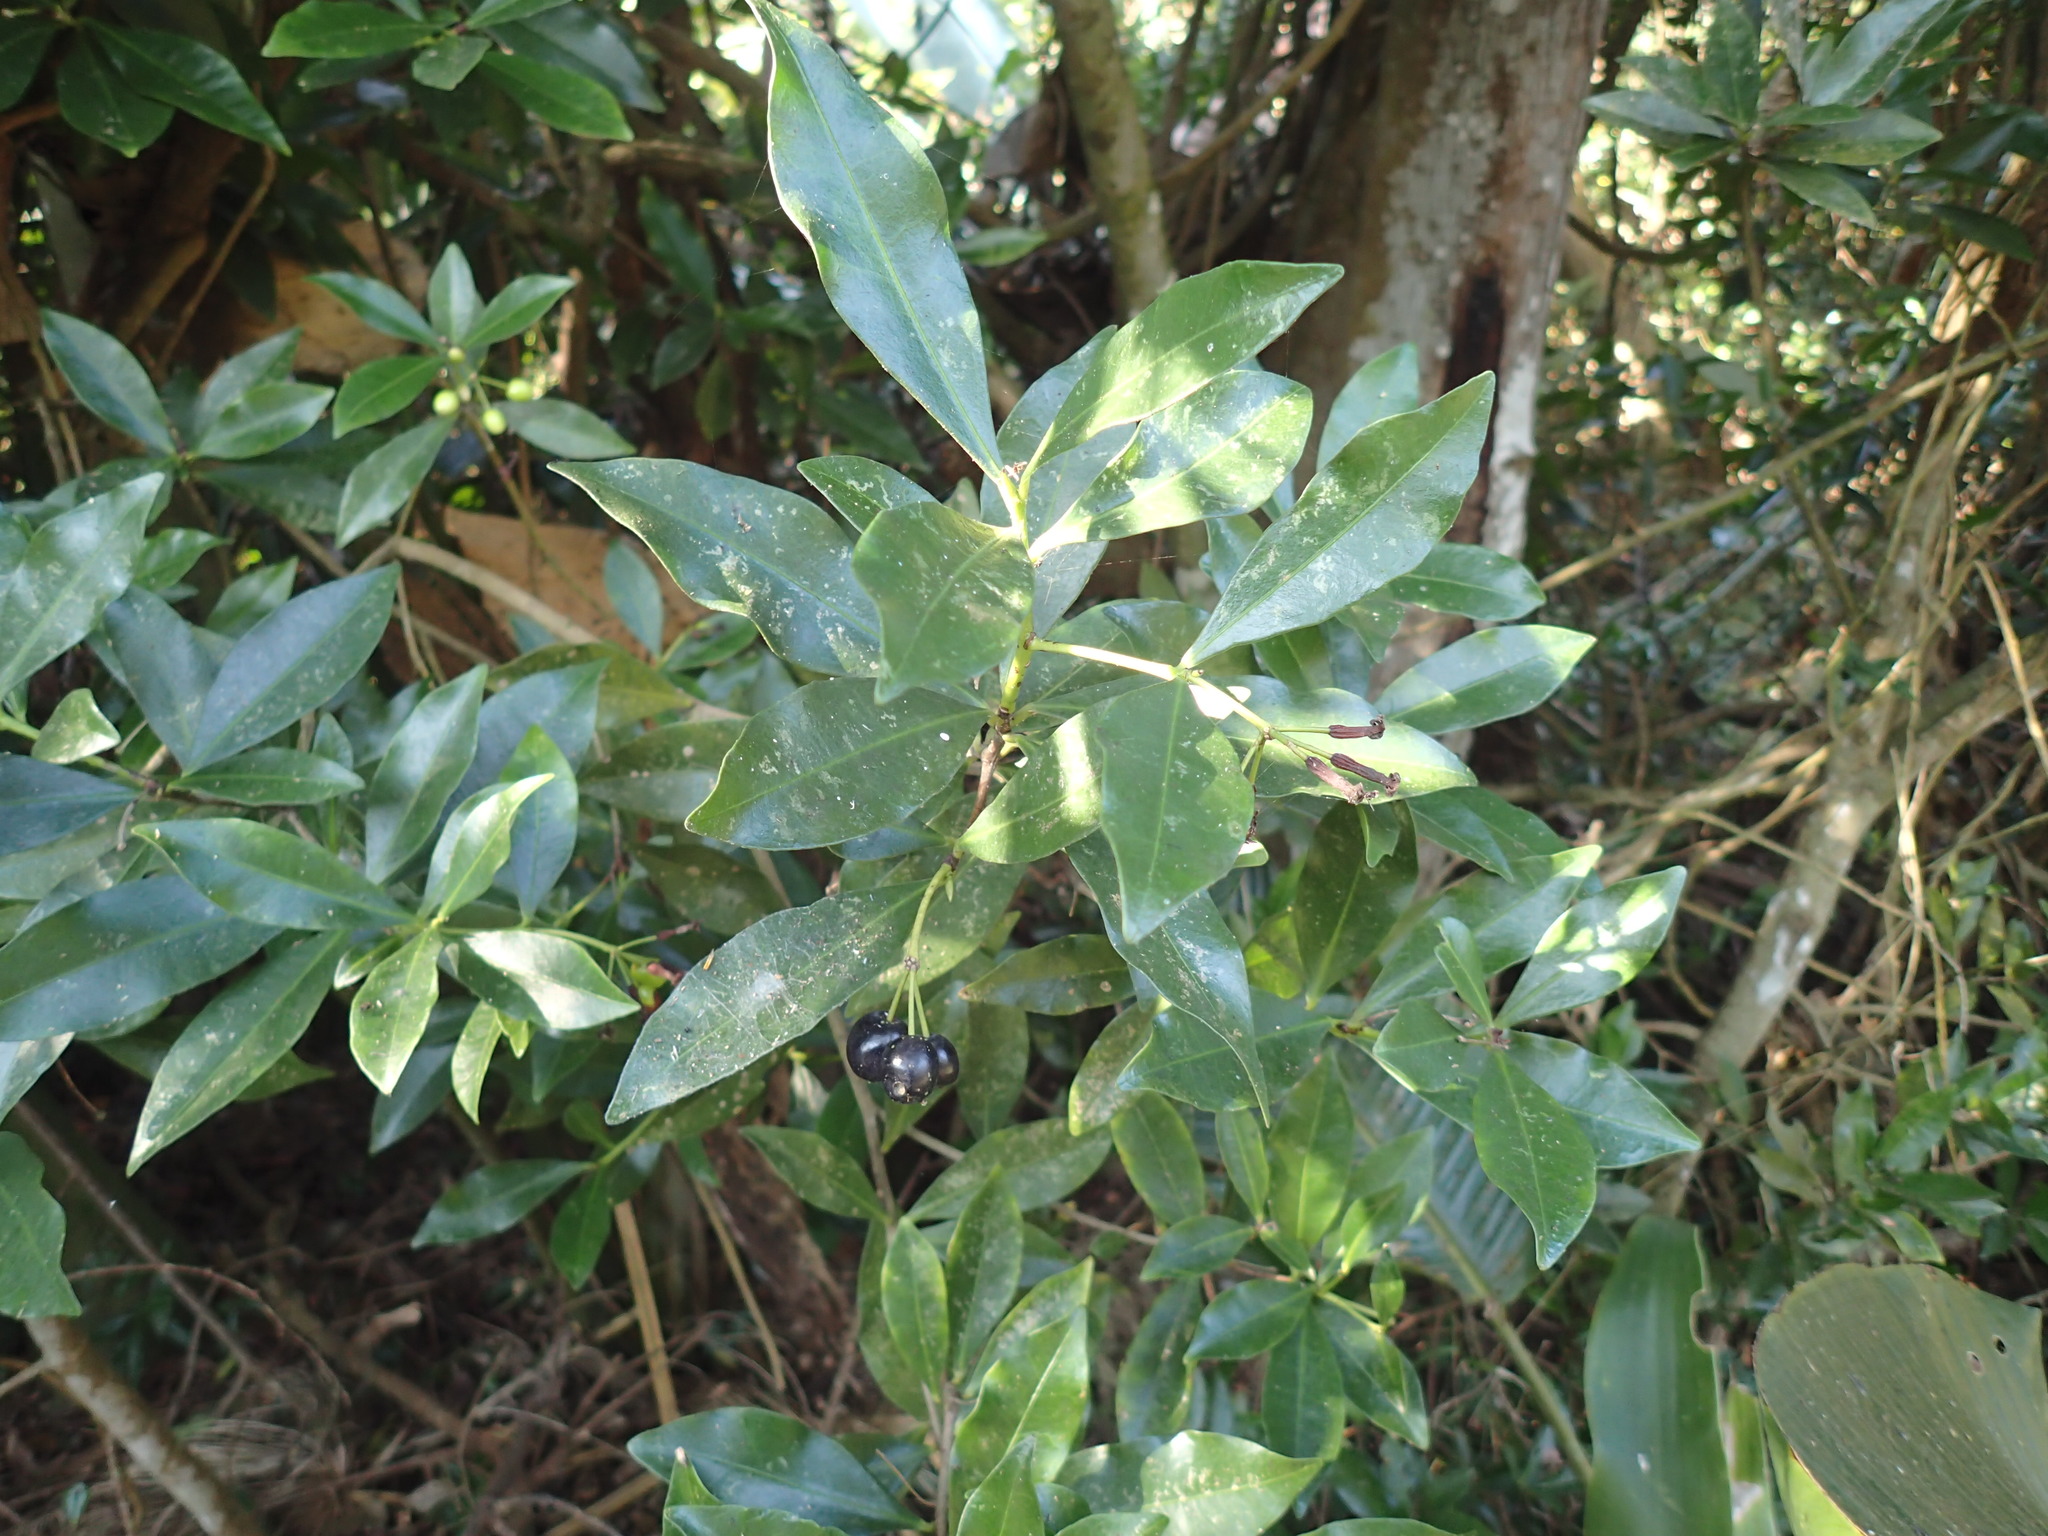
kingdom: Plantae
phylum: Tracheophyta
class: Magnoliopsida
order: Malvales
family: Thymelaeaceae
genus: Peddiea
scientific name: Peddiea africana
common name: Poison olive
